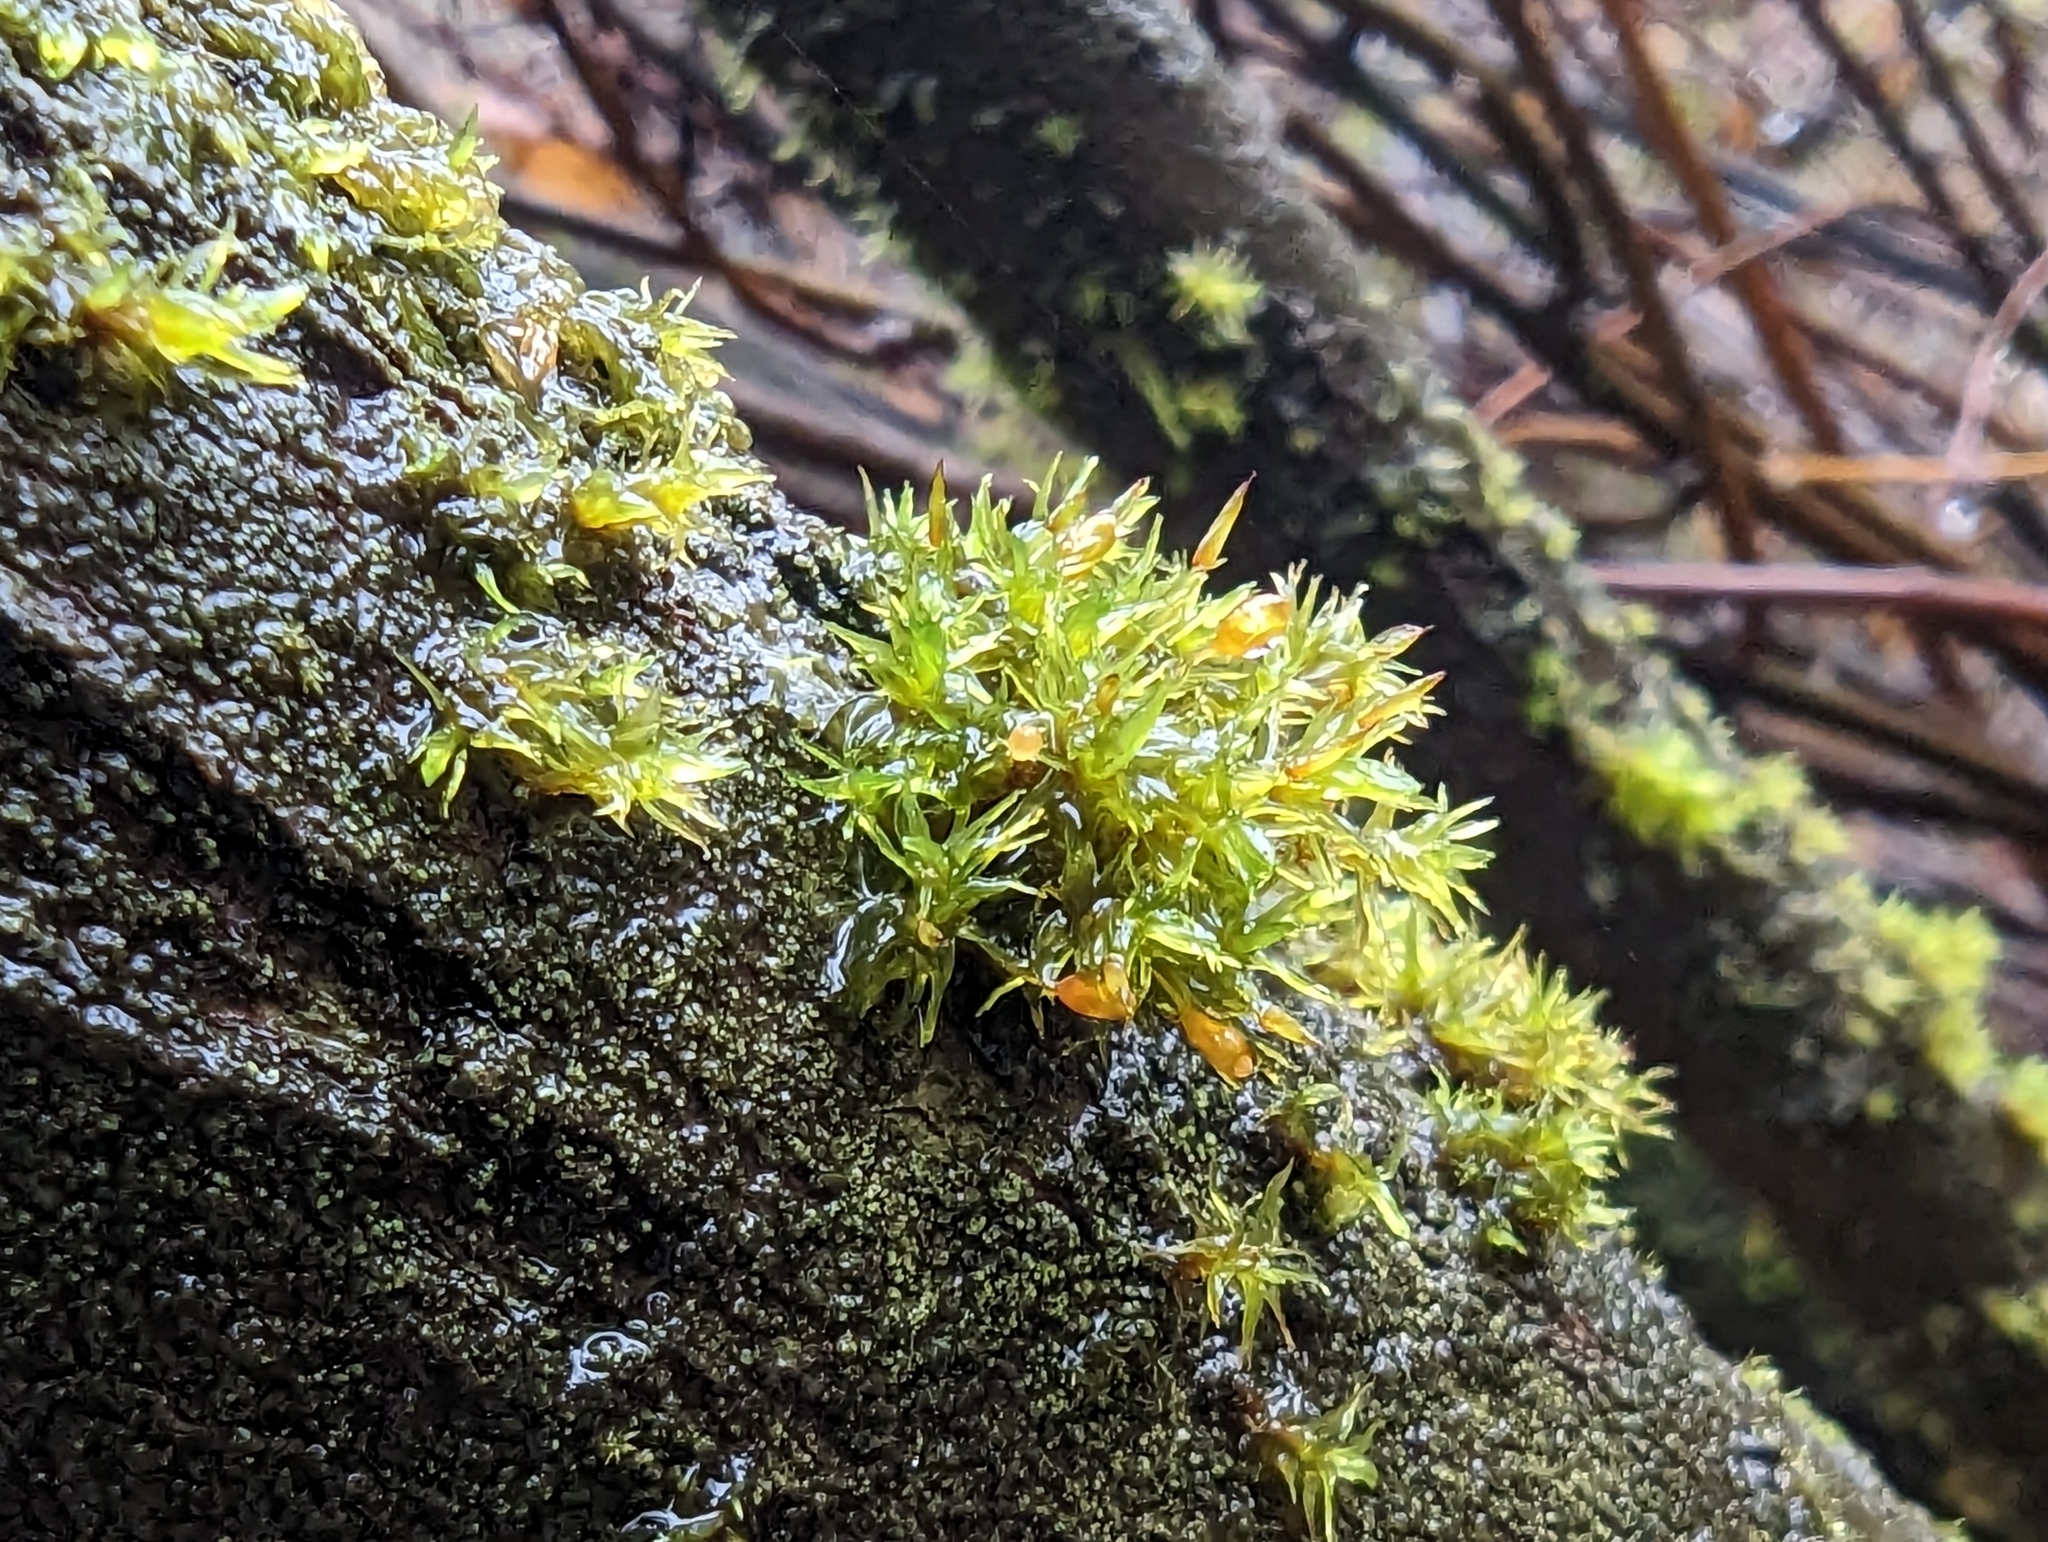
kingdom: Plantae
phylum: Bryophyta
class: Bryopsida
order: Orthotrichales
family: Orthotrichaceae
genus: Pulvigera
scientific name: Pulvigera papillosa
